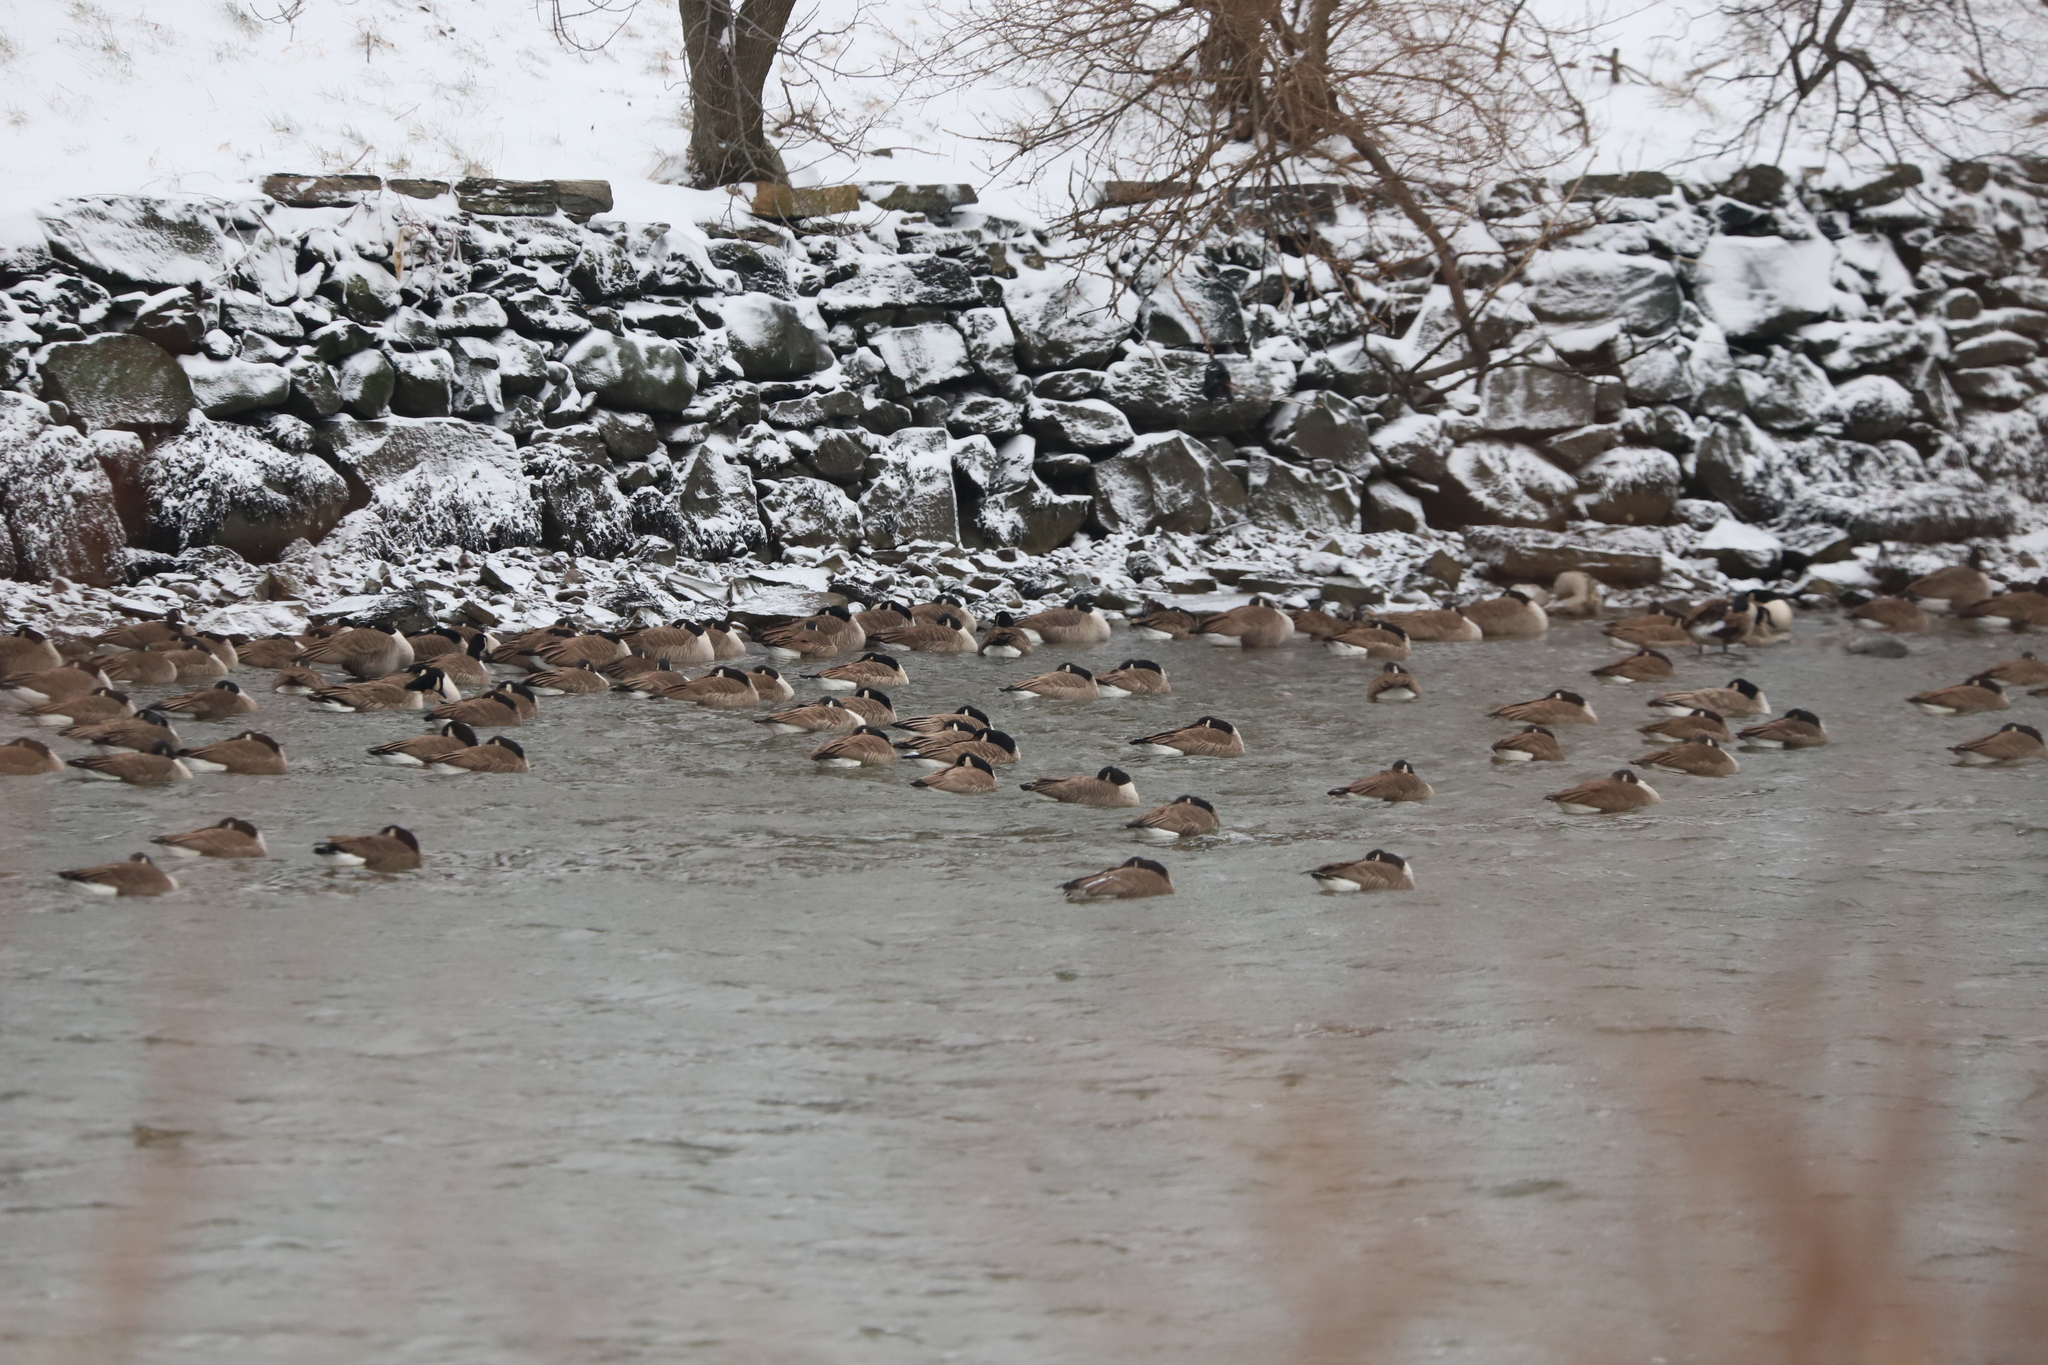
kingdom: Animalia
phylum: Chordata
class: Aves
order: Anseriformes
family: Anatidae
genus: Branta
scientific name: Branta canadensis
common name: Canada goose
